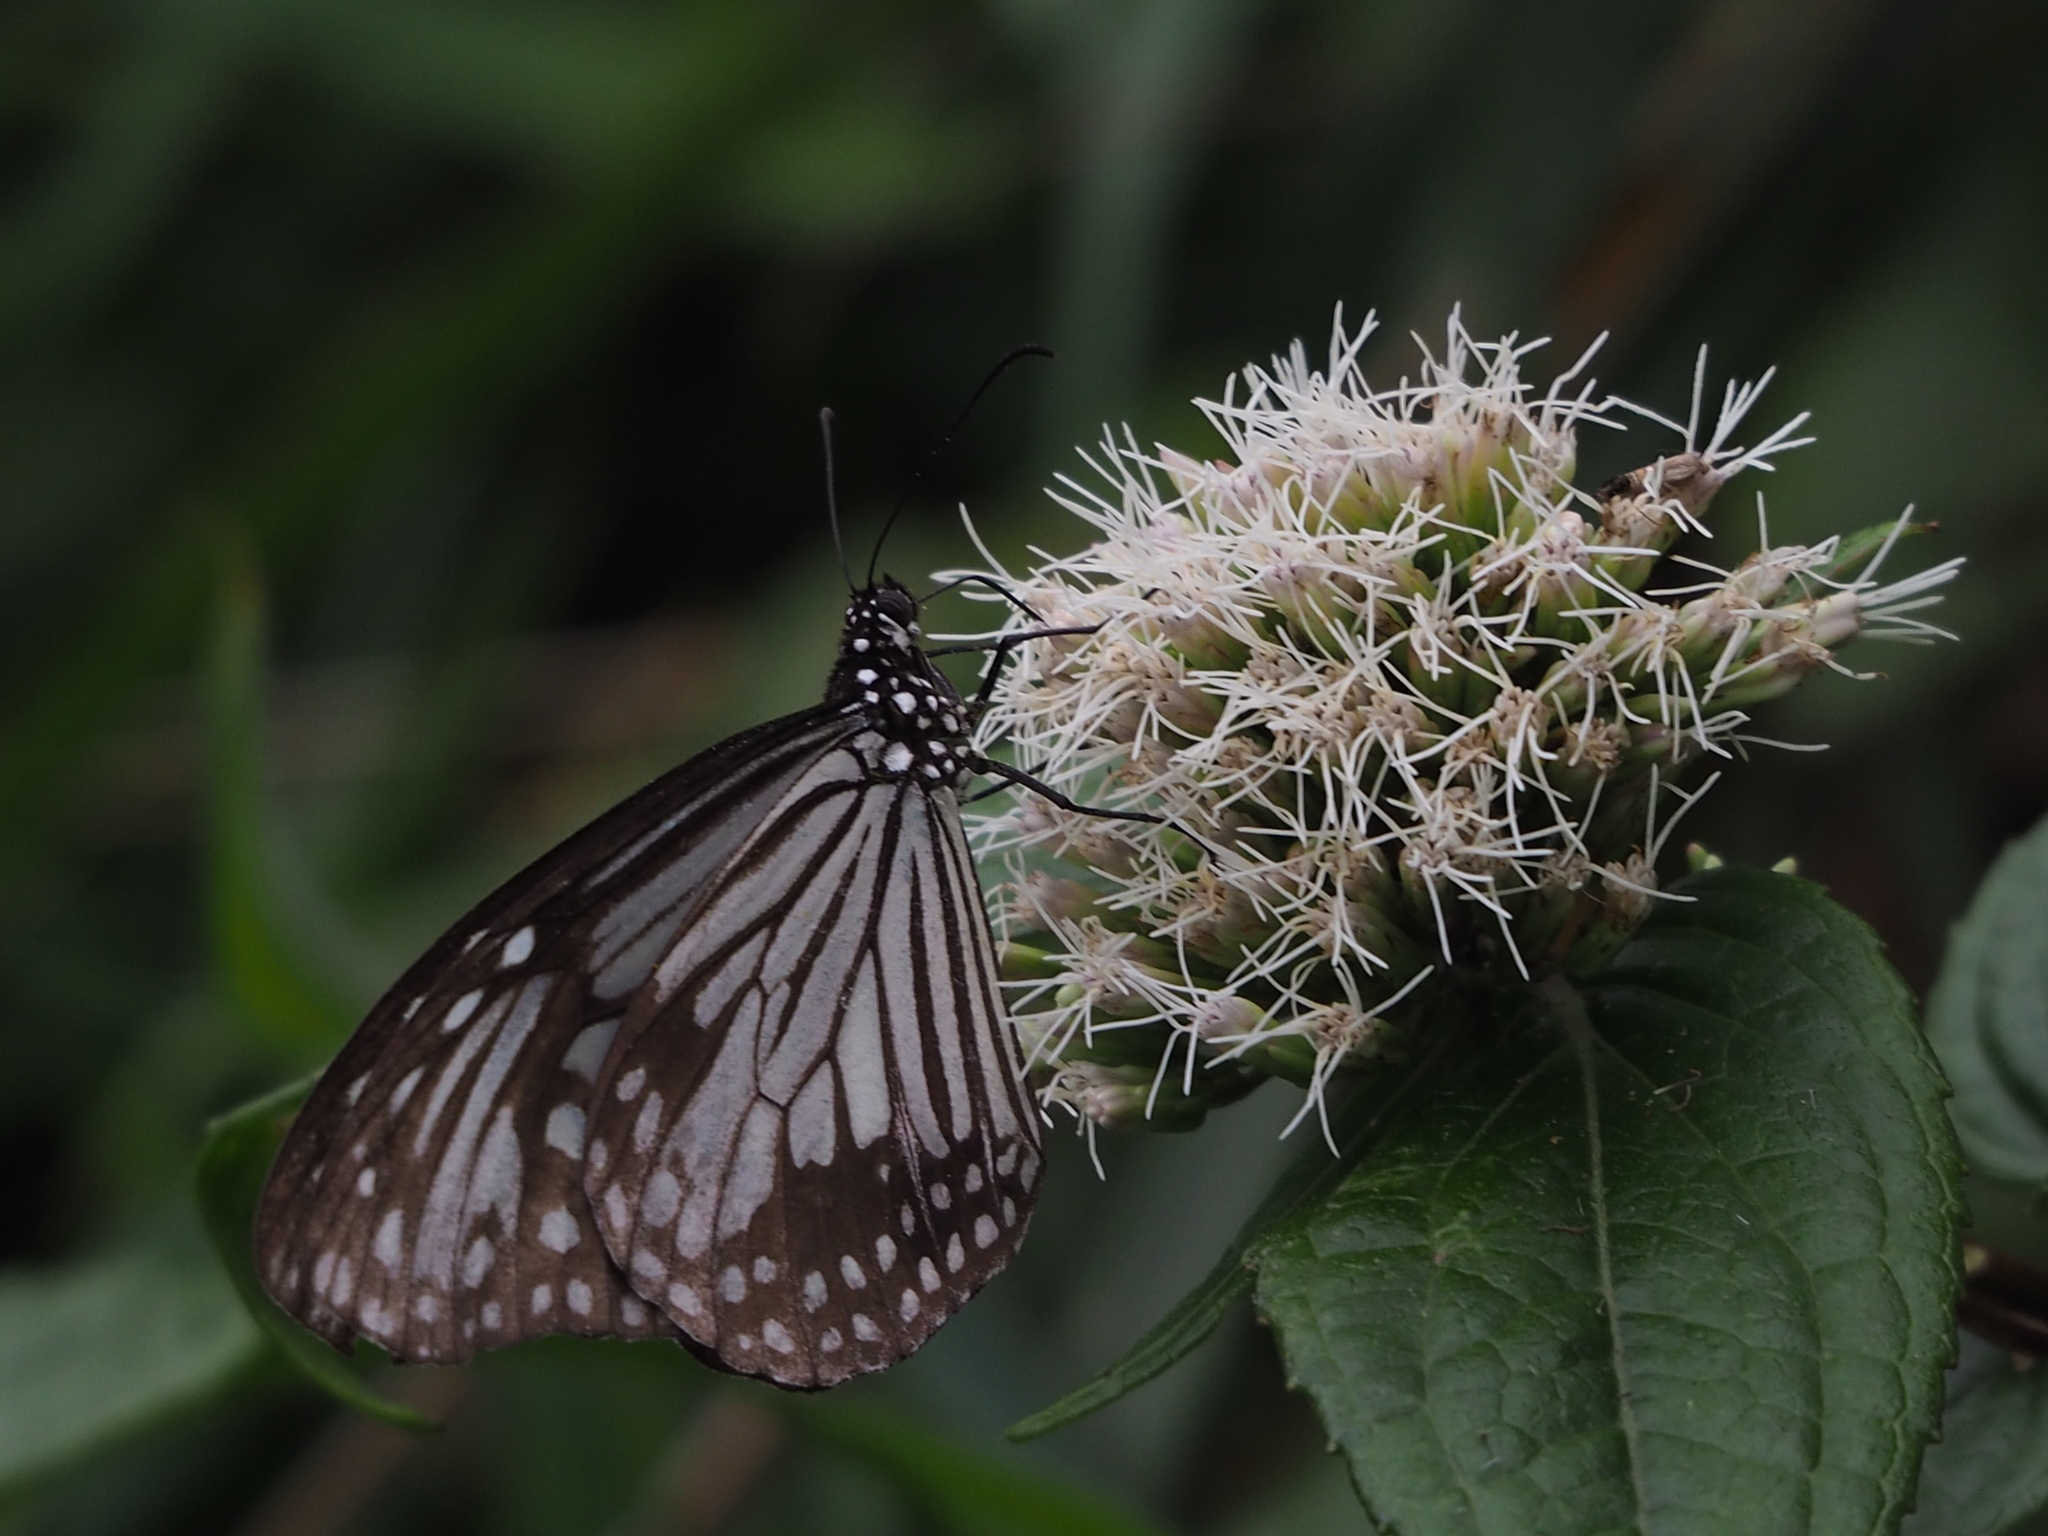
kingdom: Animalia
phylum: Arthropoda
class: Insecta
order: Lepidoptera
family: Nymphalidae
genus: Parantica
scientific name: Parantica aglea
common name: Glassy tiger
